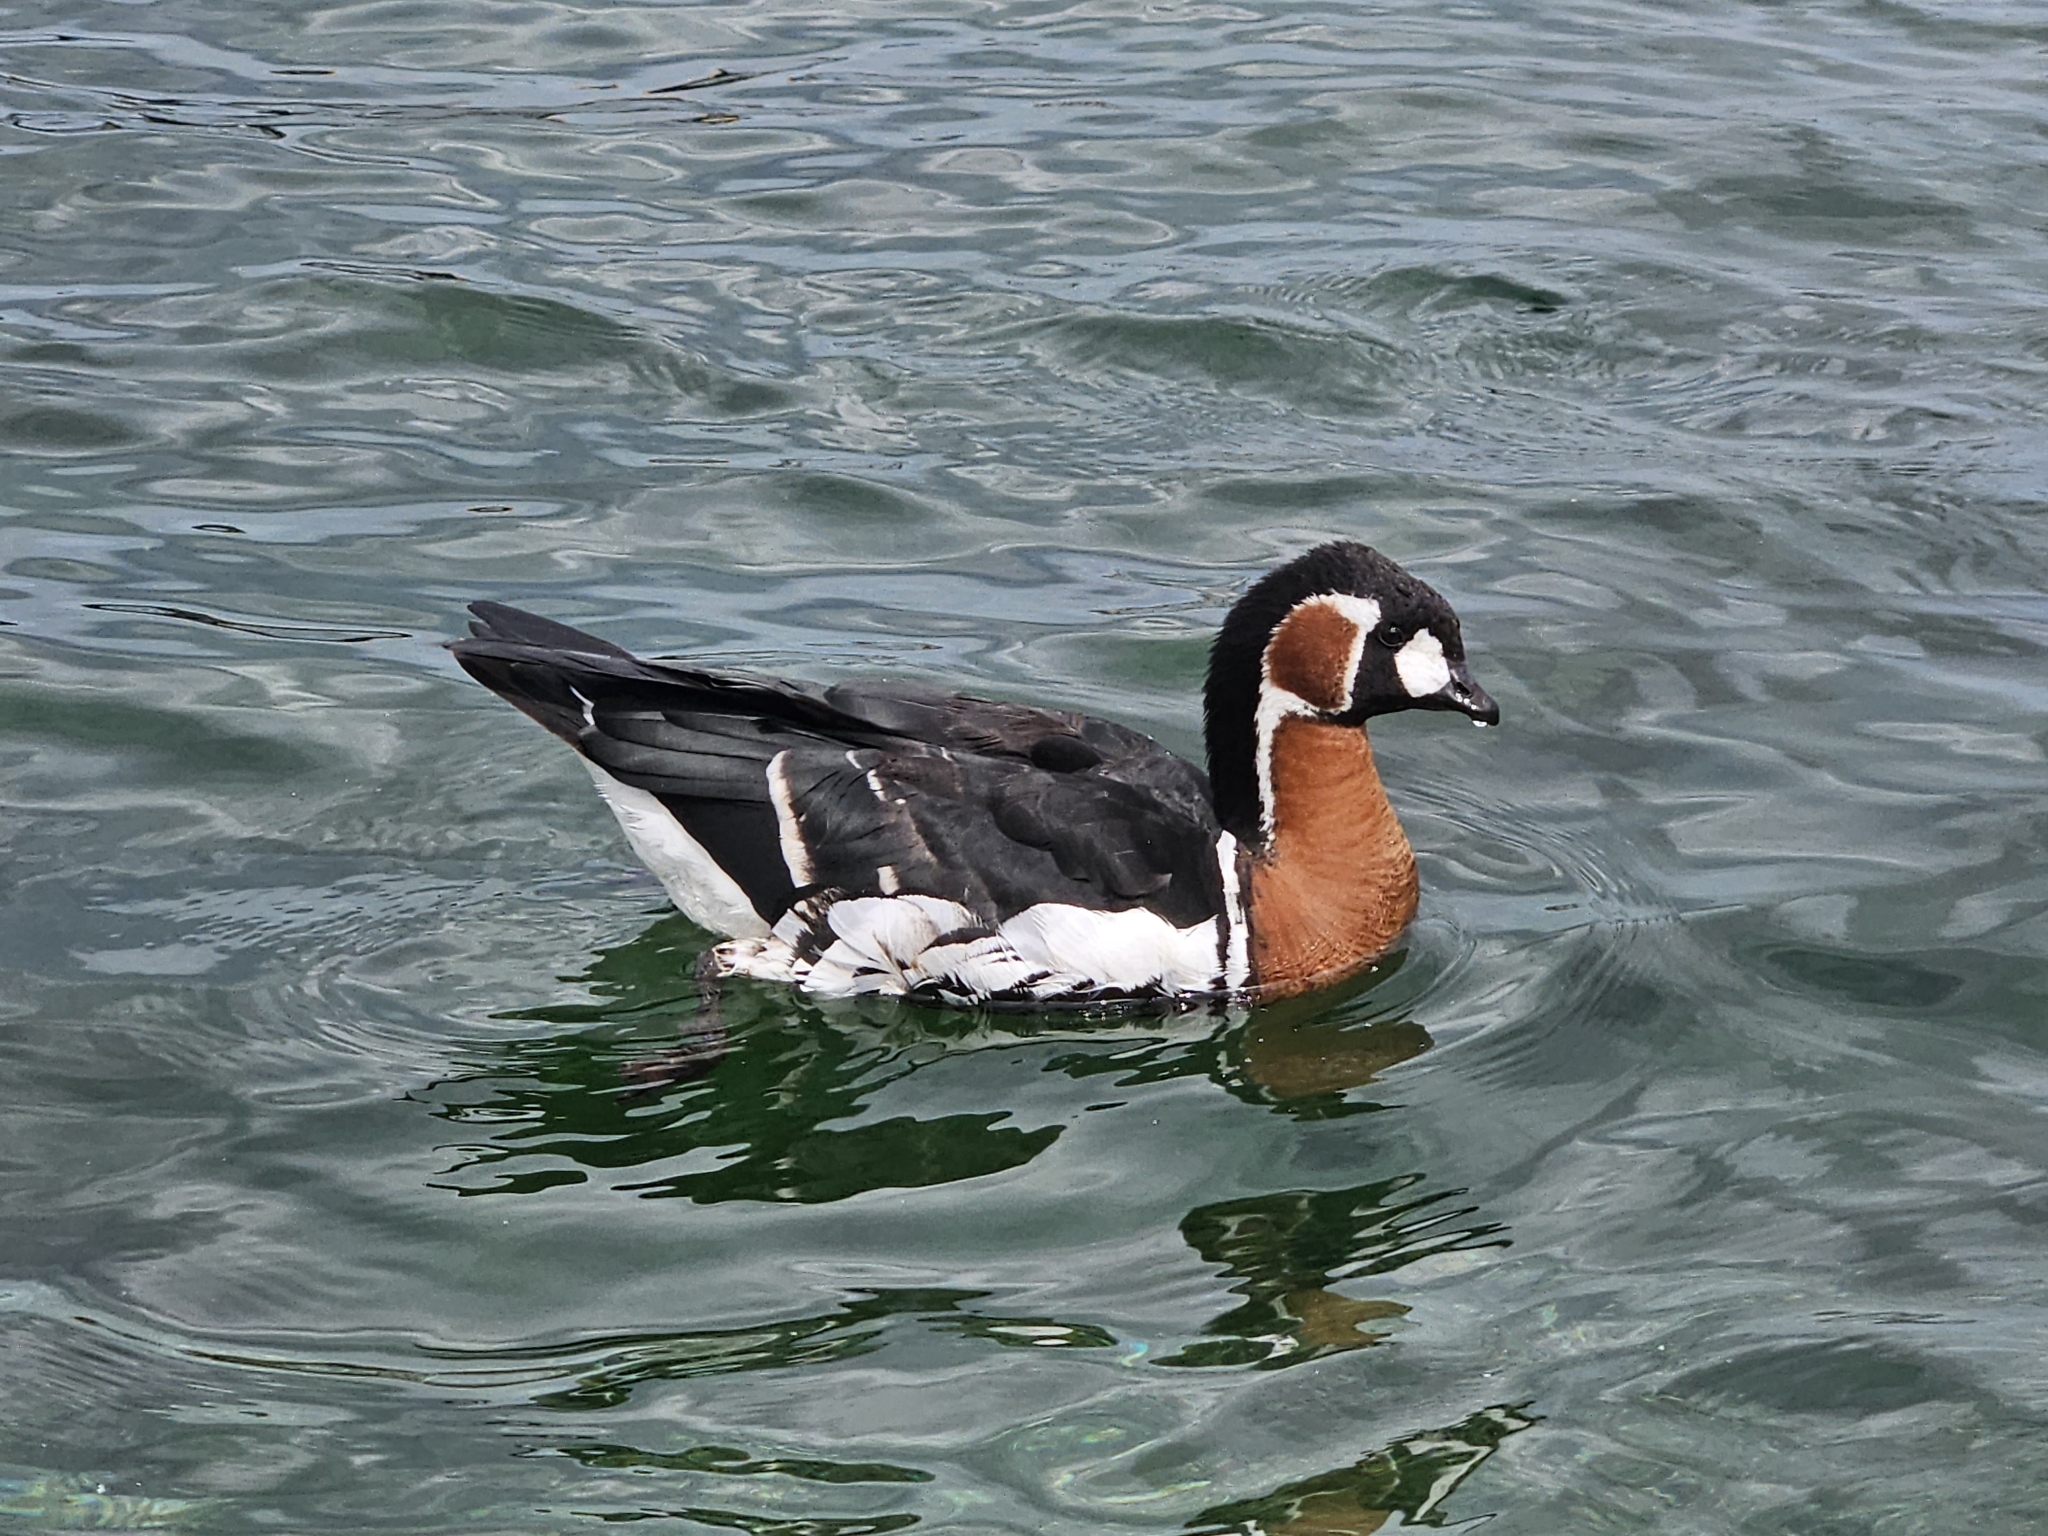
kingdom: Animalia
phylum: Chordata
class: Aves
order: Anseriformes
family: Anatidae
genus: Branta
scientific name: Branta ruficollis
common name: Red-breasted goose
